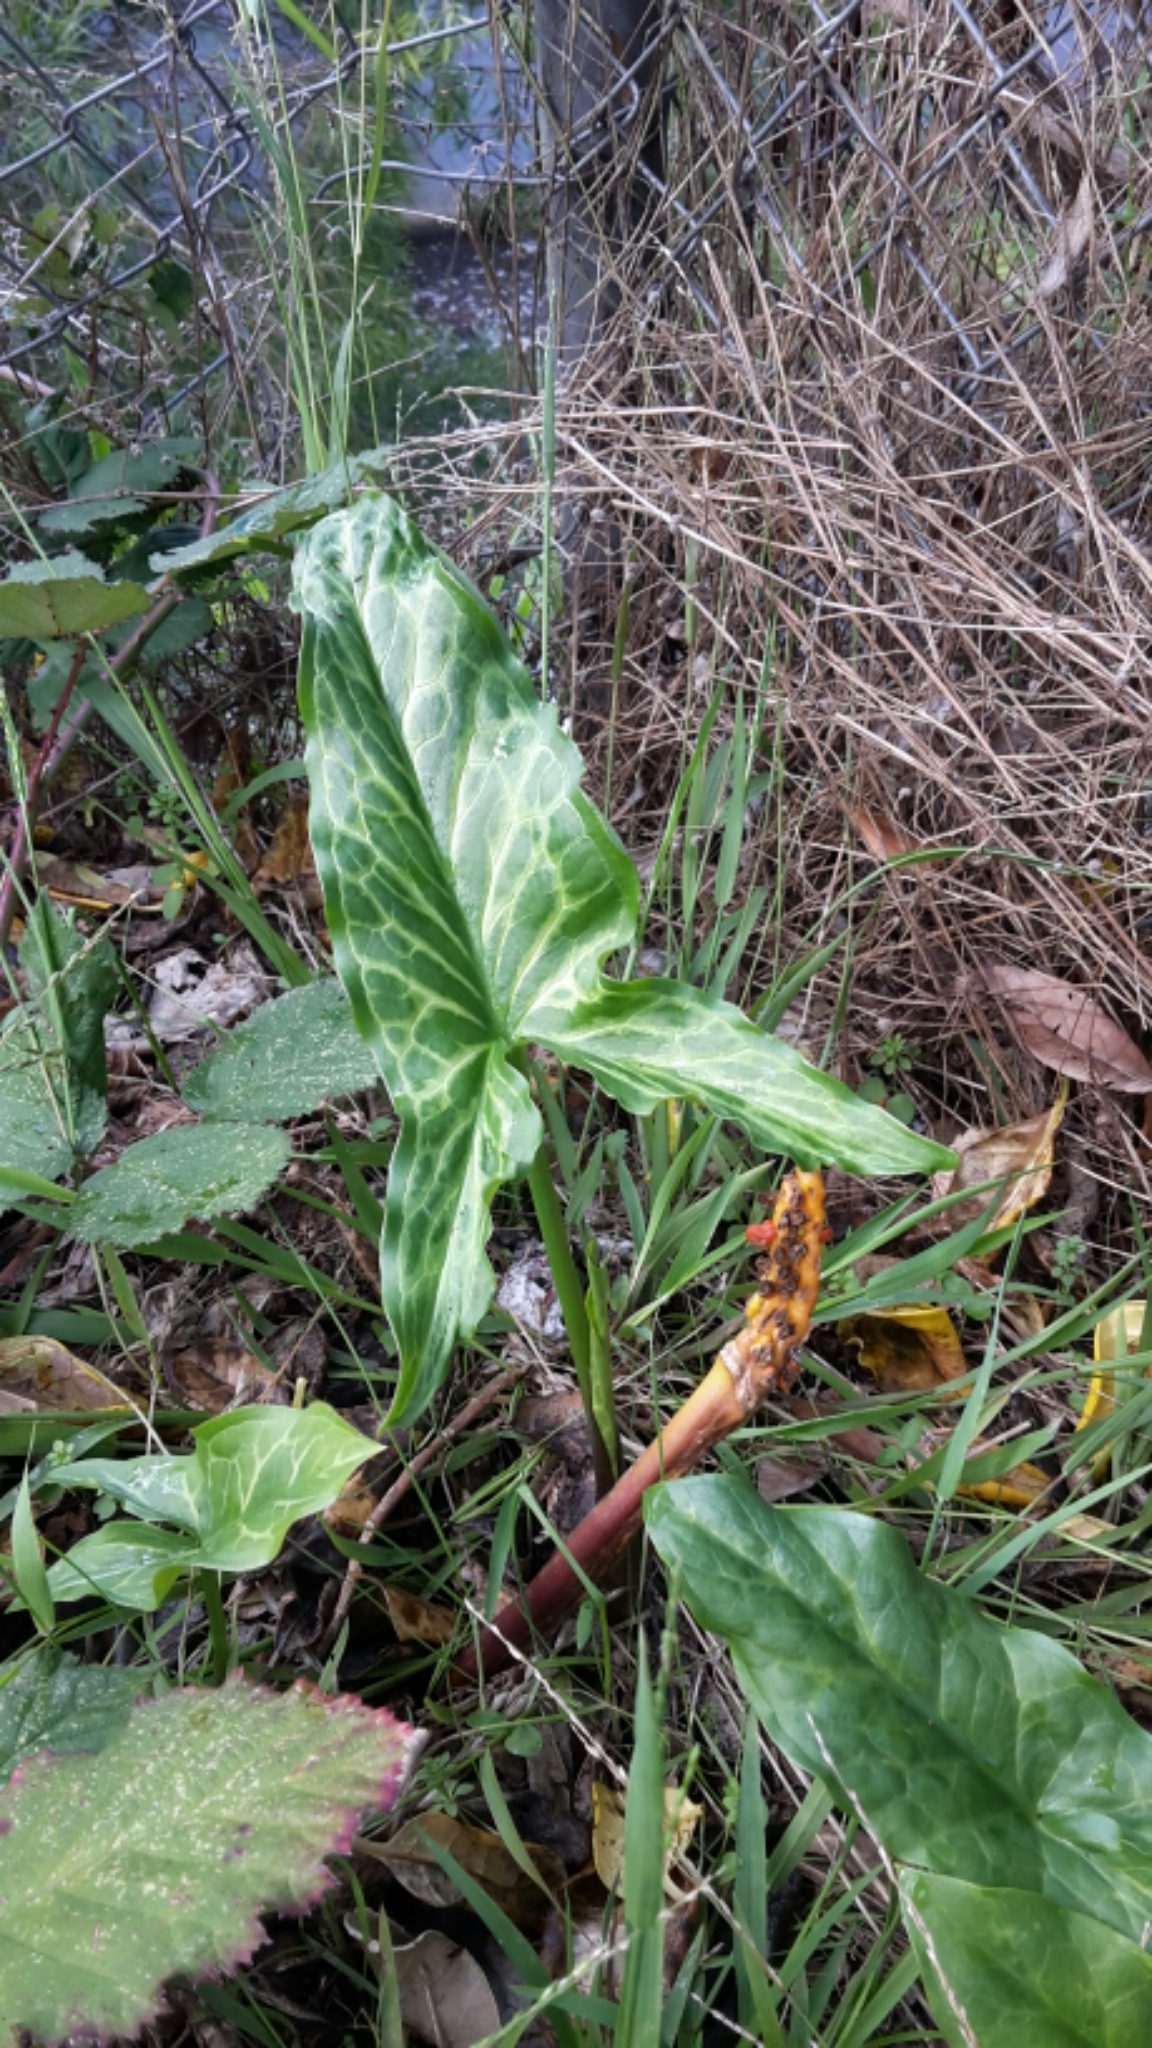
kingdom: Plantae
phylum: Tracheophyta
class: Liliopsida
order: Alismatales
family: Araceae
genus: Arum
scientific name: Arum italicum
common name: Italian lords-and-ladies
